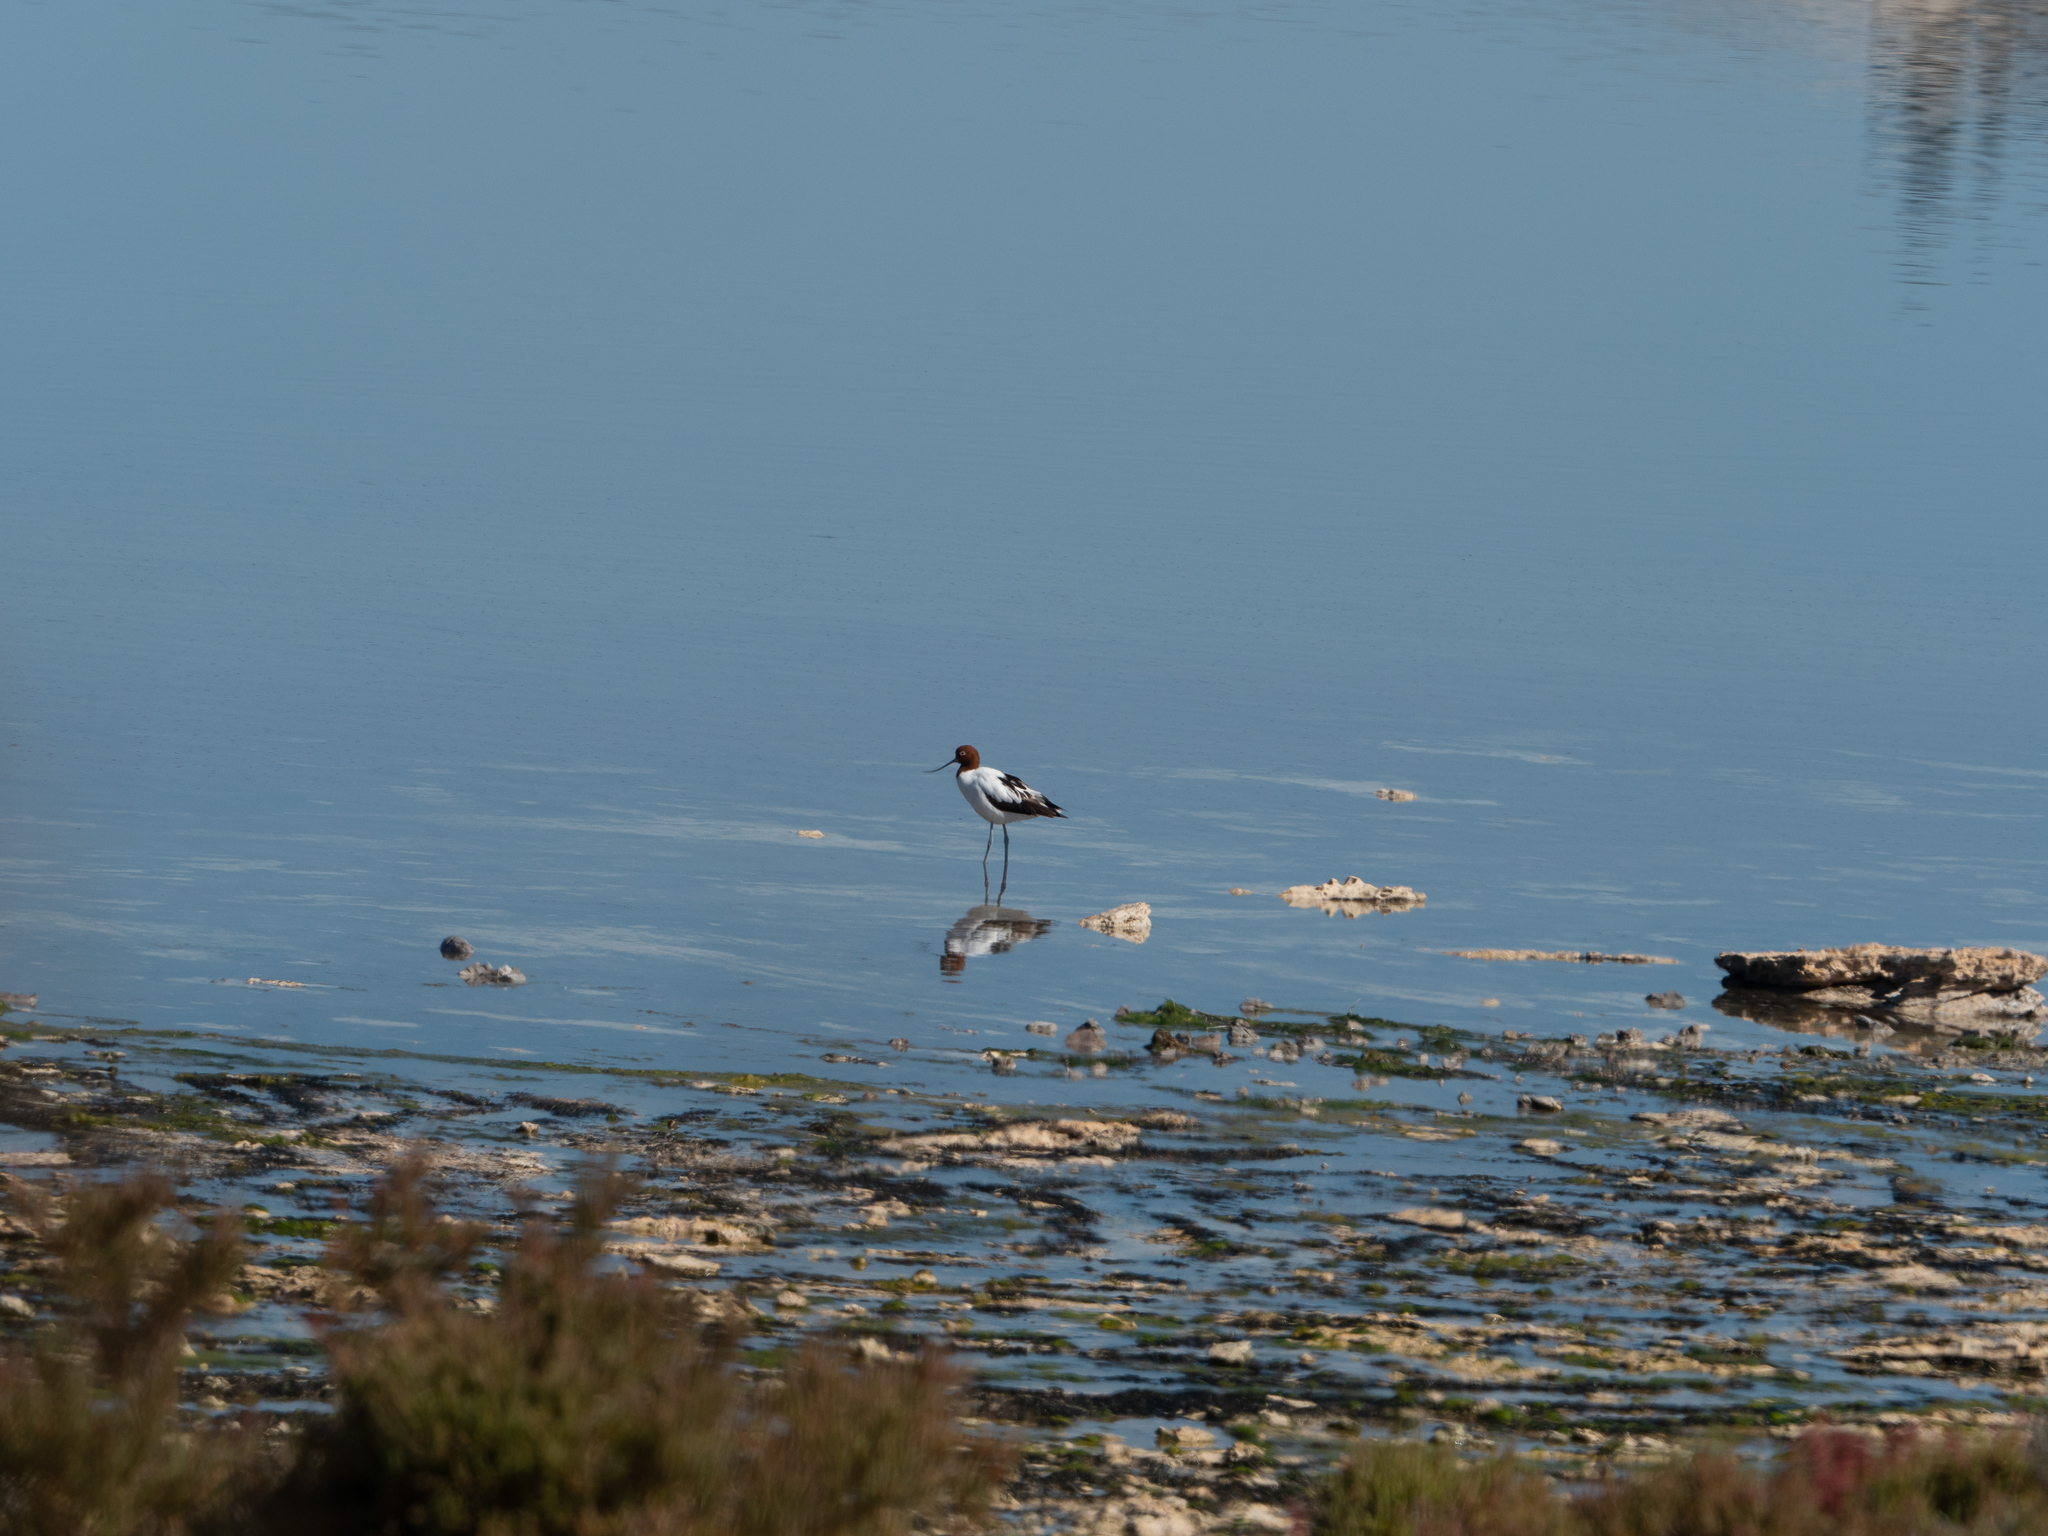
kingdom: Animalia
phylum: Chordata
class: Aves
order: Charadriiformes
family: Recurvirostridae
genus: Recurvirostra
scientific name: Recurvirostra novaehollandiae
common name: Red-necked avocet
